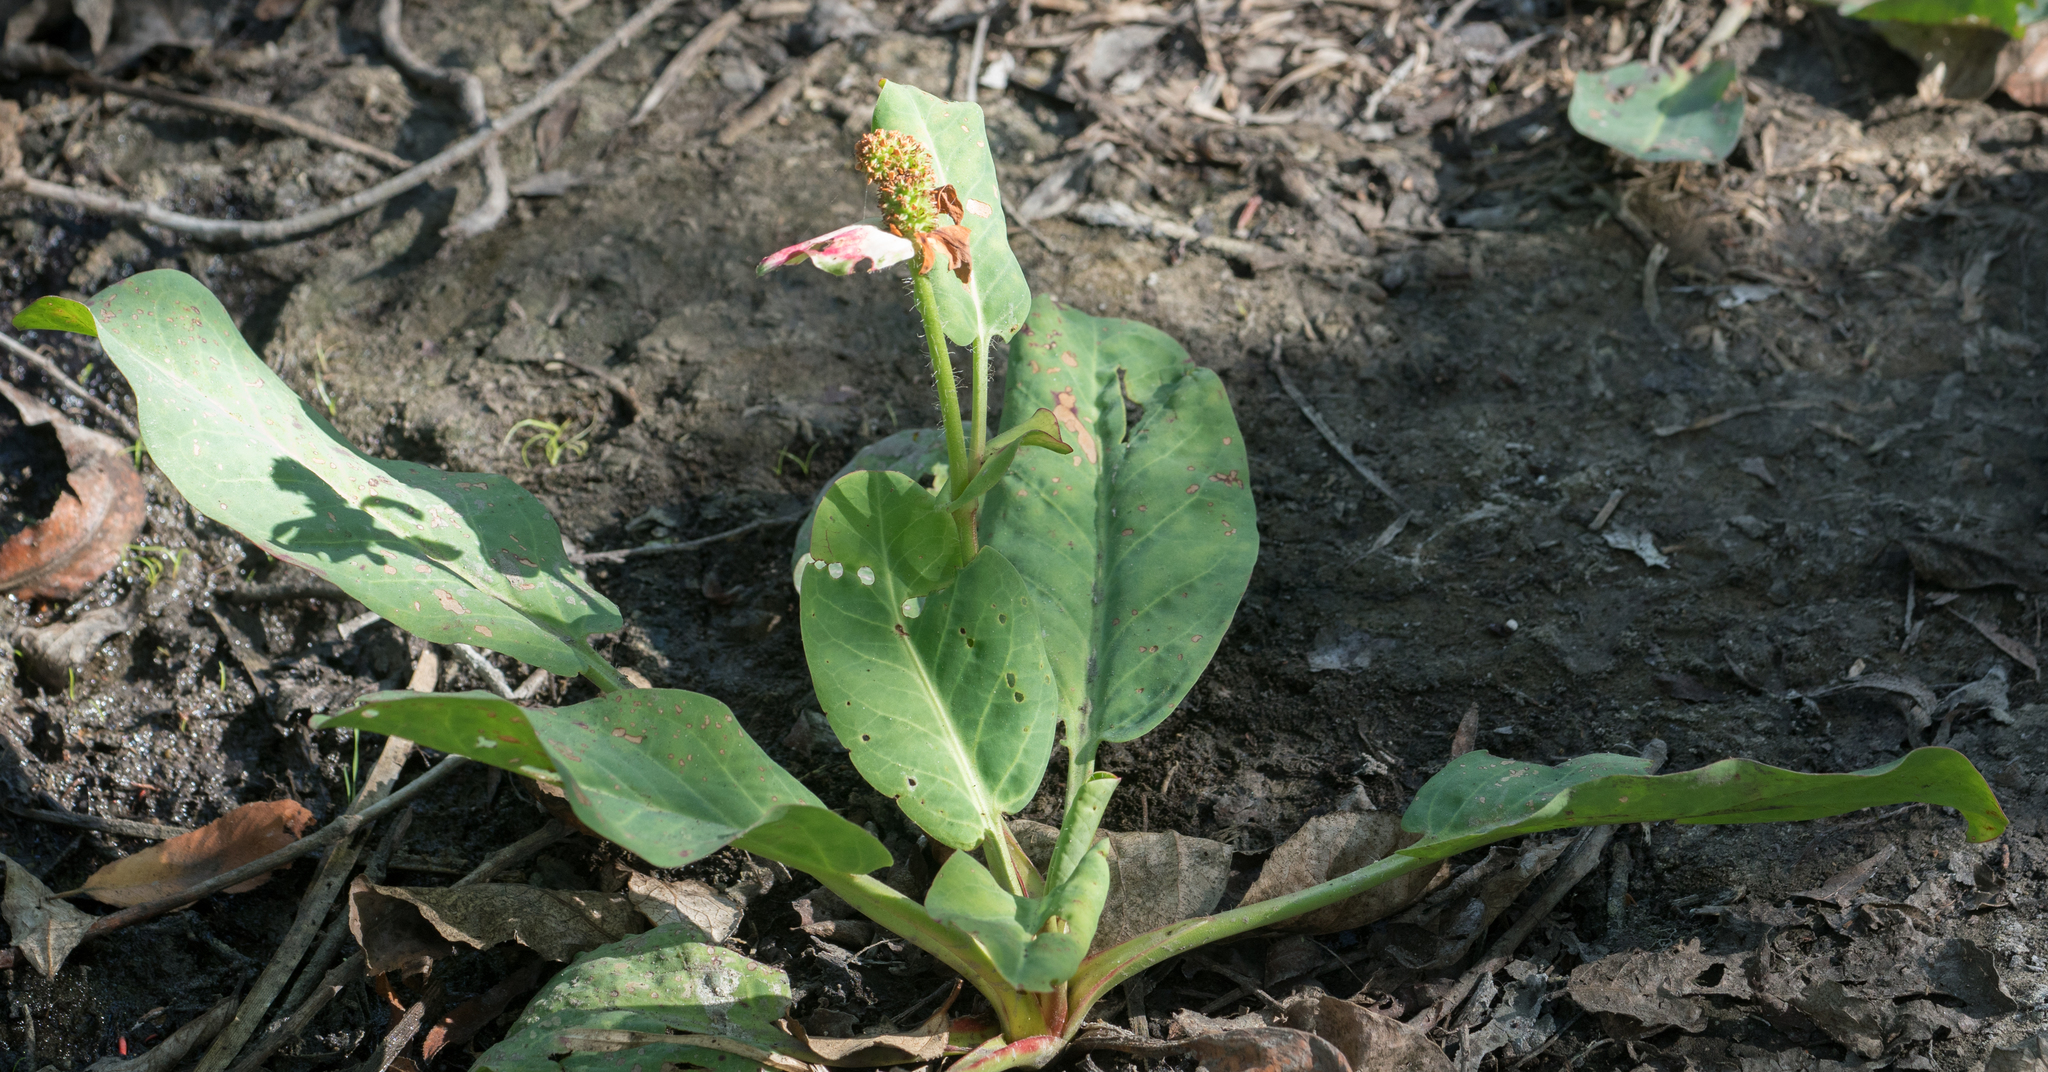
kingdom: Plantae
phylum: Tracheophyta
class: Magnoliopsida
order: Piperales
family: Saururaceae
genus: Anemopsis
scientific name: Anemopsis californica
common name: Apache-beads
